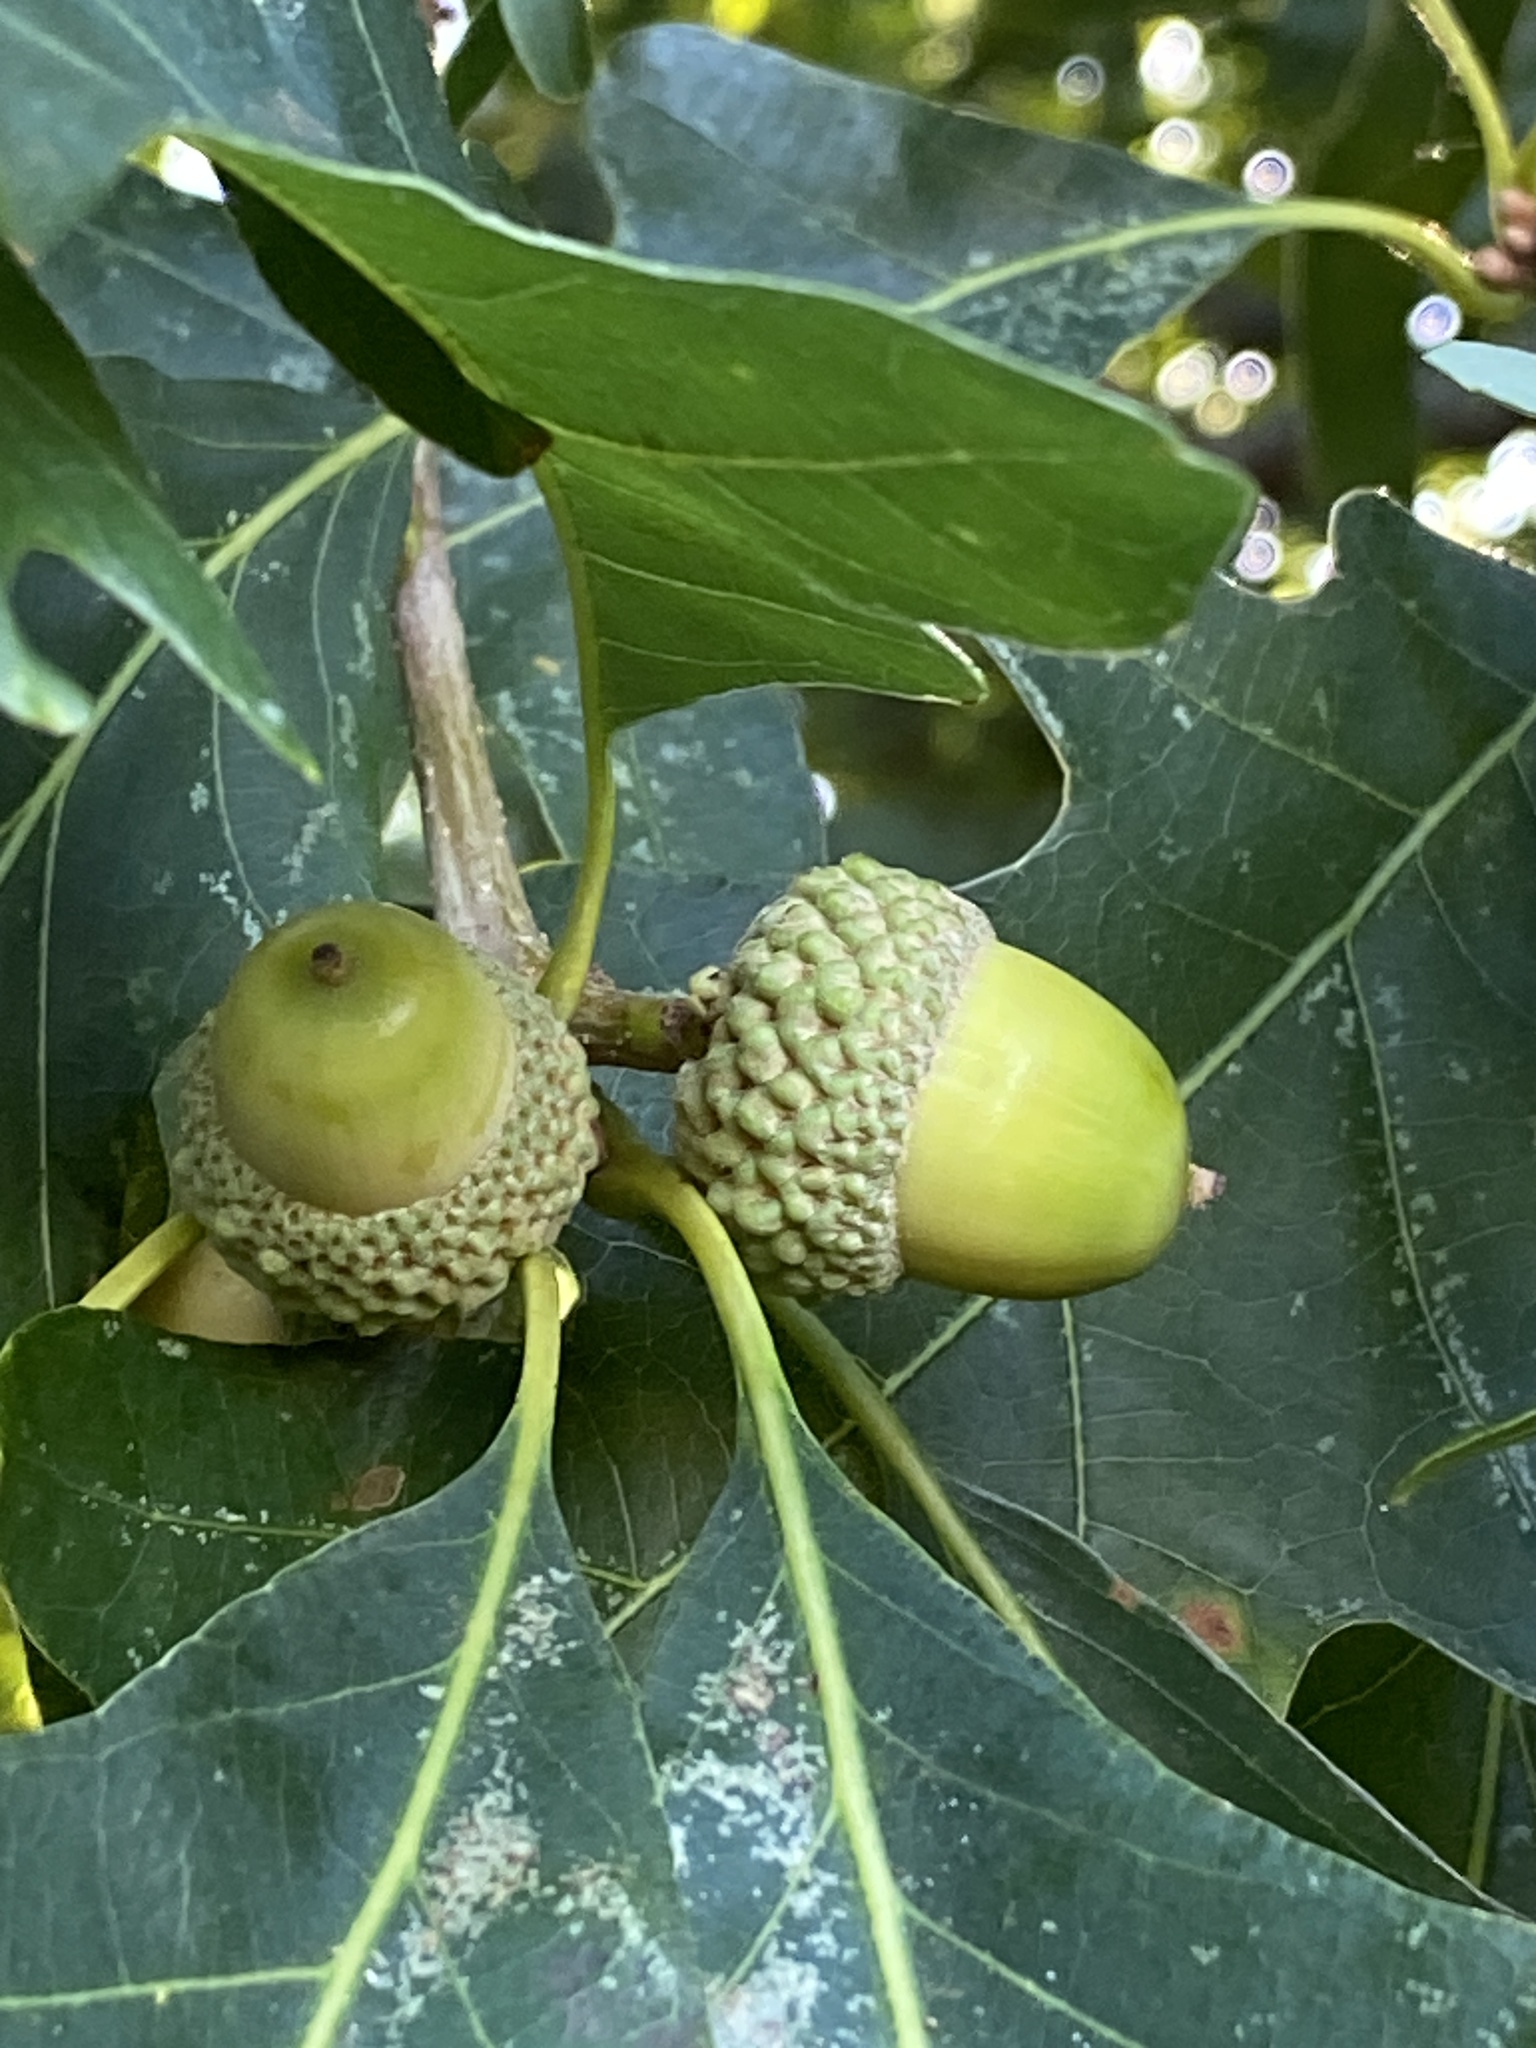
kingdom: Plantae
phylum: Tracheophyta
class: Magnoliopsida
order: Fagales
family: Fagaceae
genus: Quercus
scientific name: Quercus alba
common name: White oak
